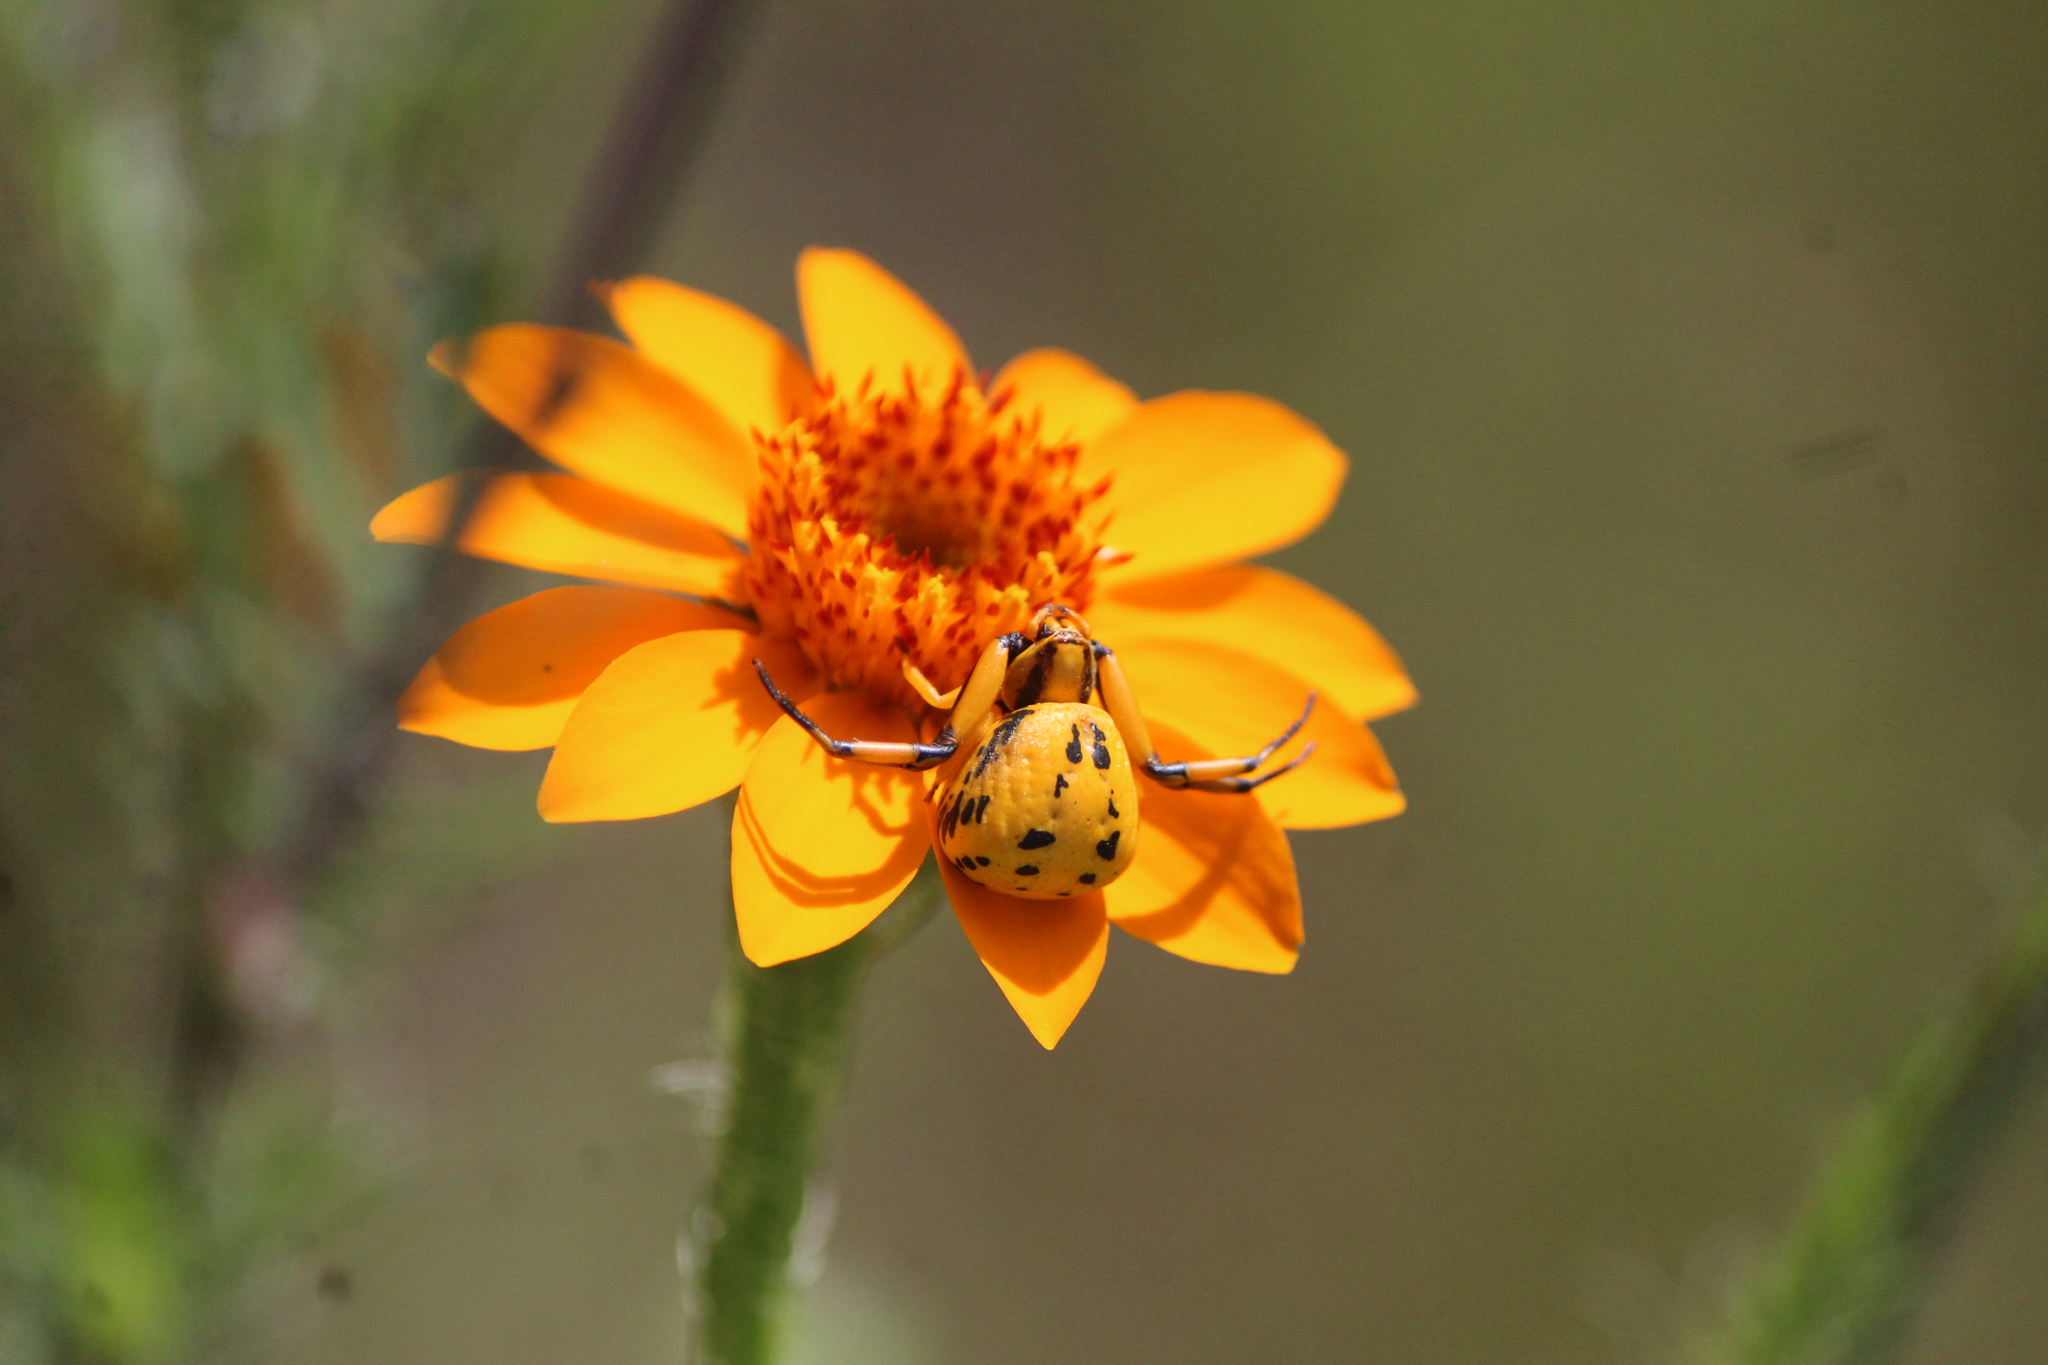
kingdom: Animalia
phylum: Arthropoda
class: Arachnida
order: Araneae
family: Thomisidae
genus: Misumenoides
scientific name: Misumenoides formosipes
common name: White-banded crab spider
